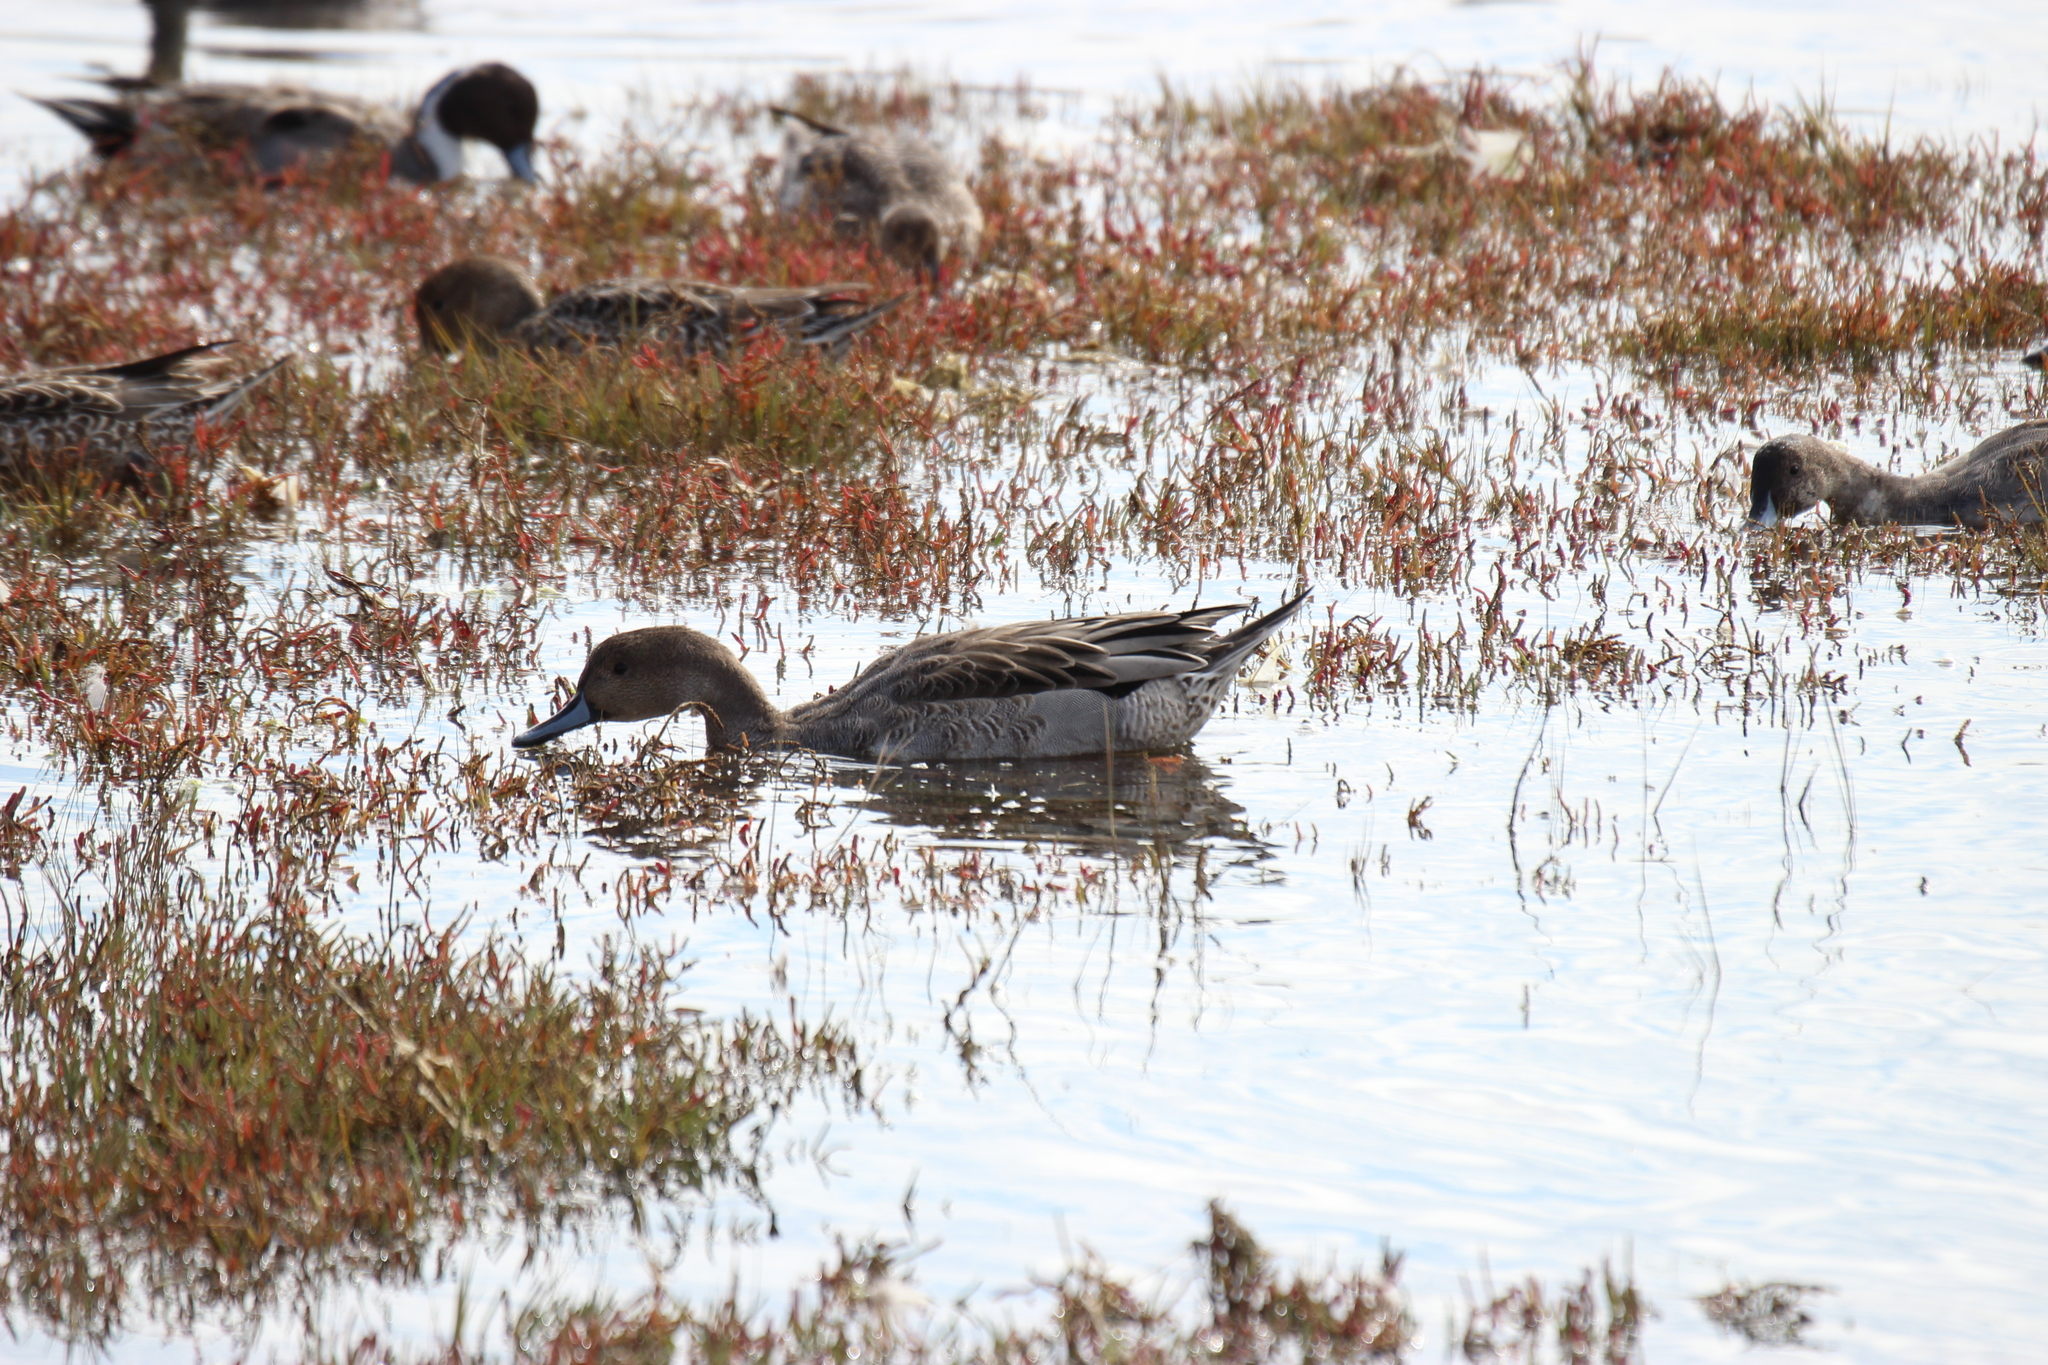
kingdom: Animalia
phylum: Chordata
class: Aves
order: Anseriformes
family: Anatidae
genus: Anas
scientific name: Anas acuta
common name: Northern pintail
